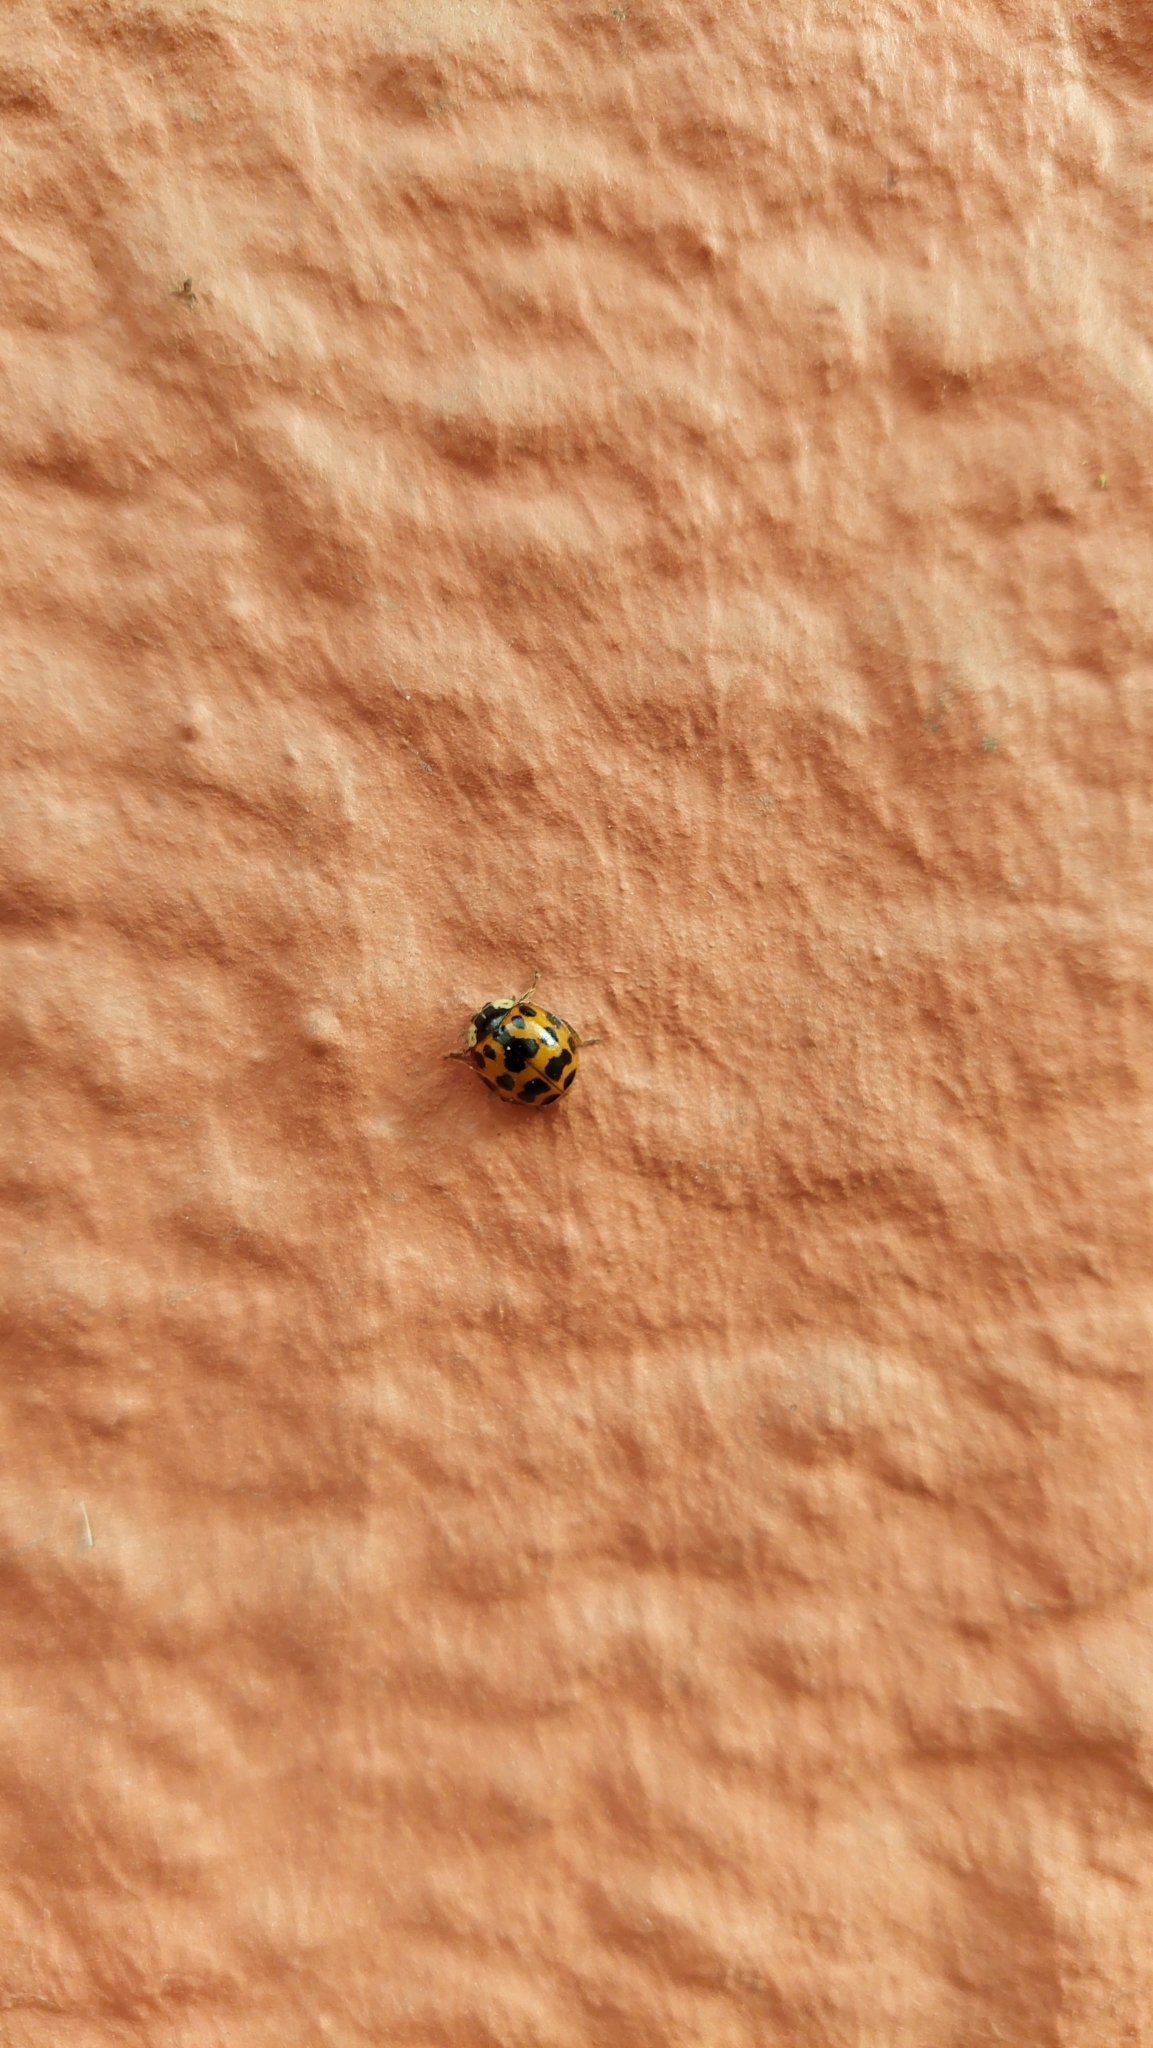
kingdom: Animalia
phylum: Arthropoda
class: Insecta
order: Coleoptera
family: Coccinellidae
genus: Harmonia
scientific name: Harmonia axyridis
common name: Harlequin ladybird
